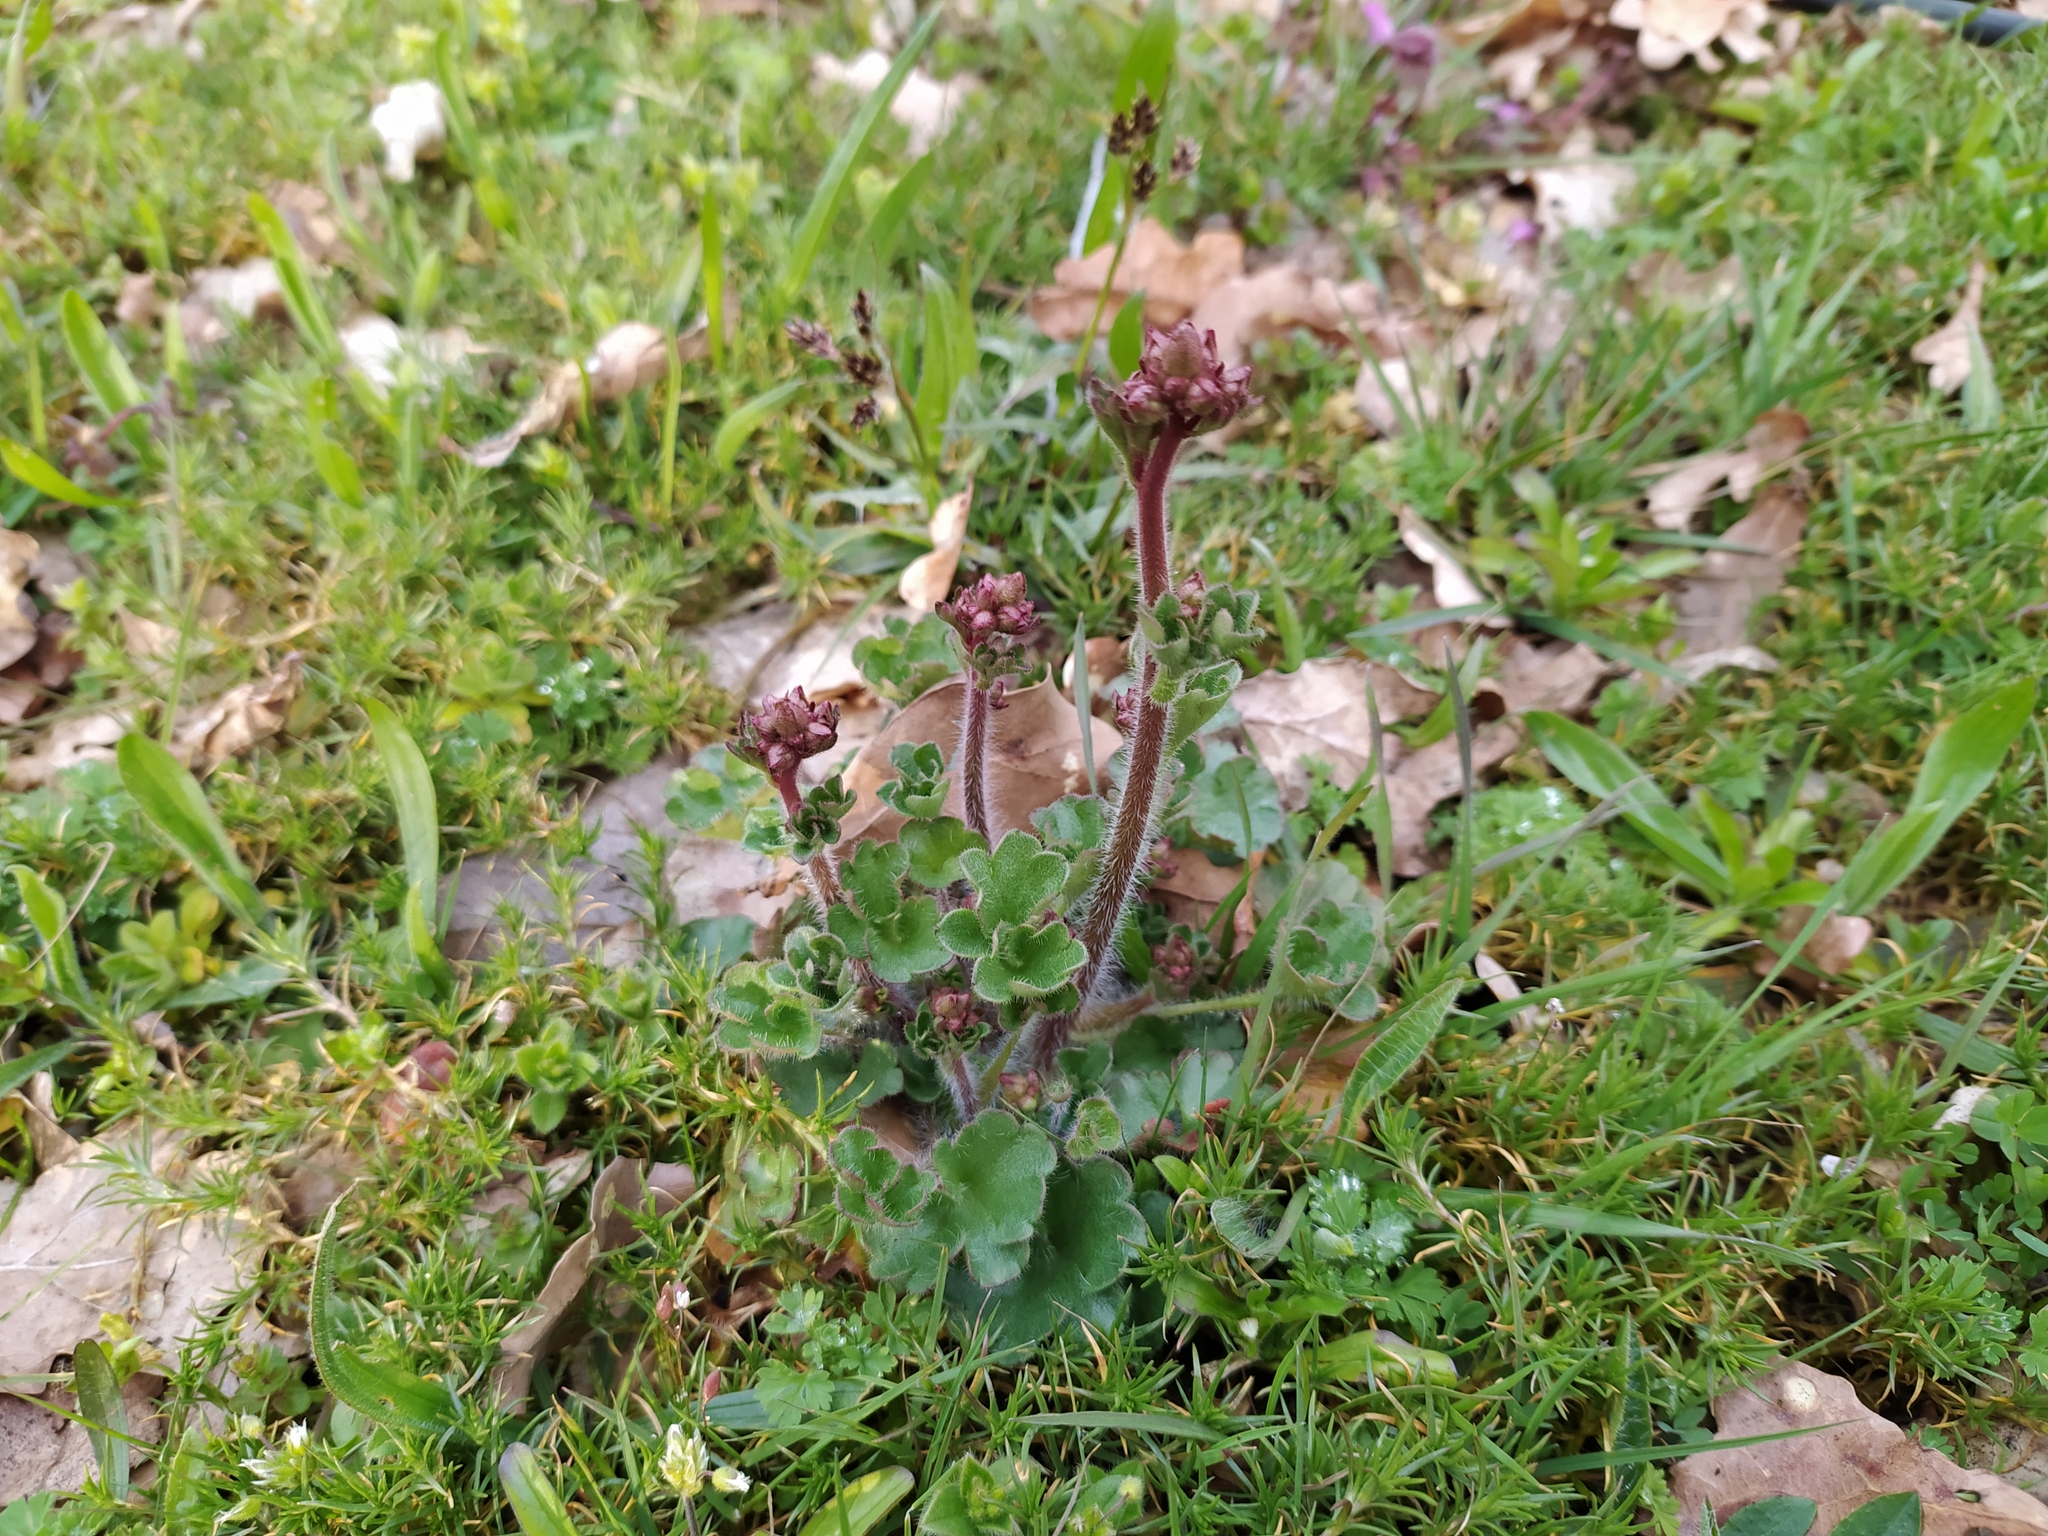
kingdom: Plantae
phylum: Tracheophyta
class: Magnoliopsida
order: Saxifragales
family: Saxifragaceae
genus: Saxifraga
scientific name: Saxifraga granulata
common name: Meadow saxifrage
